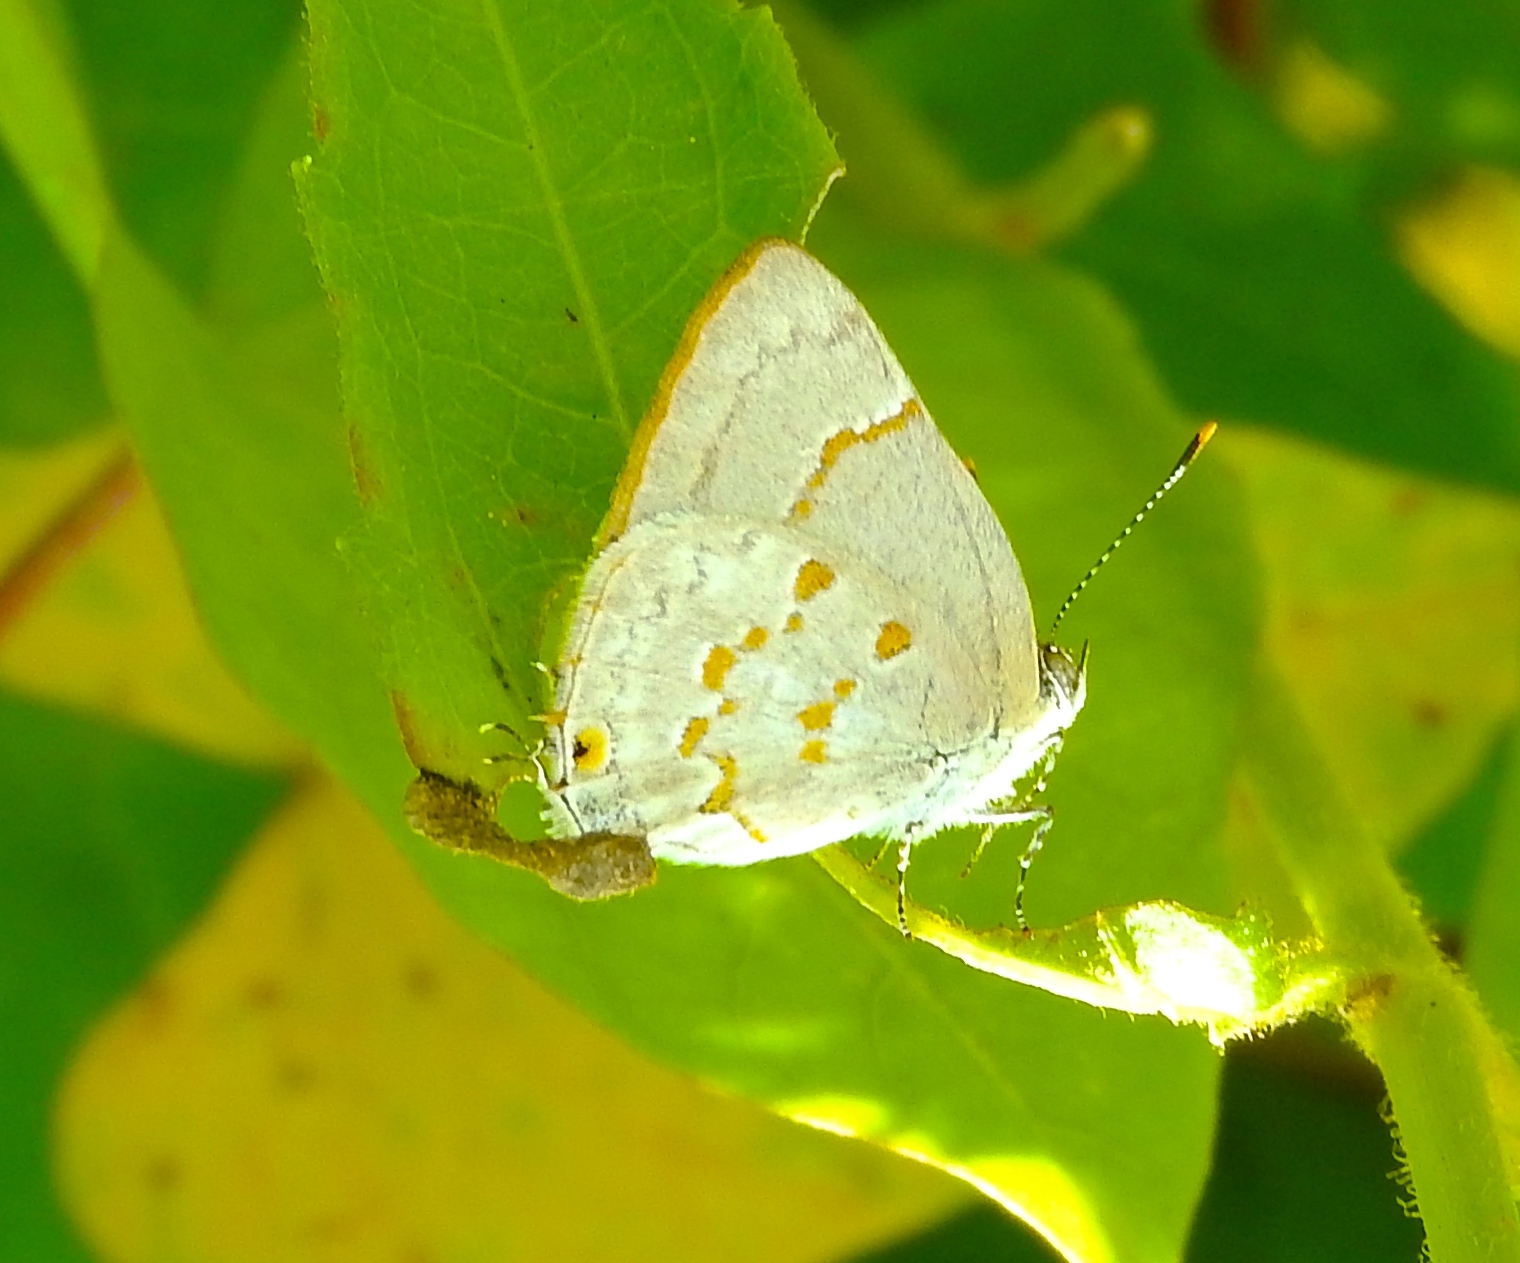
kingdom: Animalia
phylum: Arthropoda
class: Insecta
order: Lepidoptera
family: Lycaenidae
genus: Tmolus
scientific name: Tmolus echion
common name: Red-spotted hairstreak
